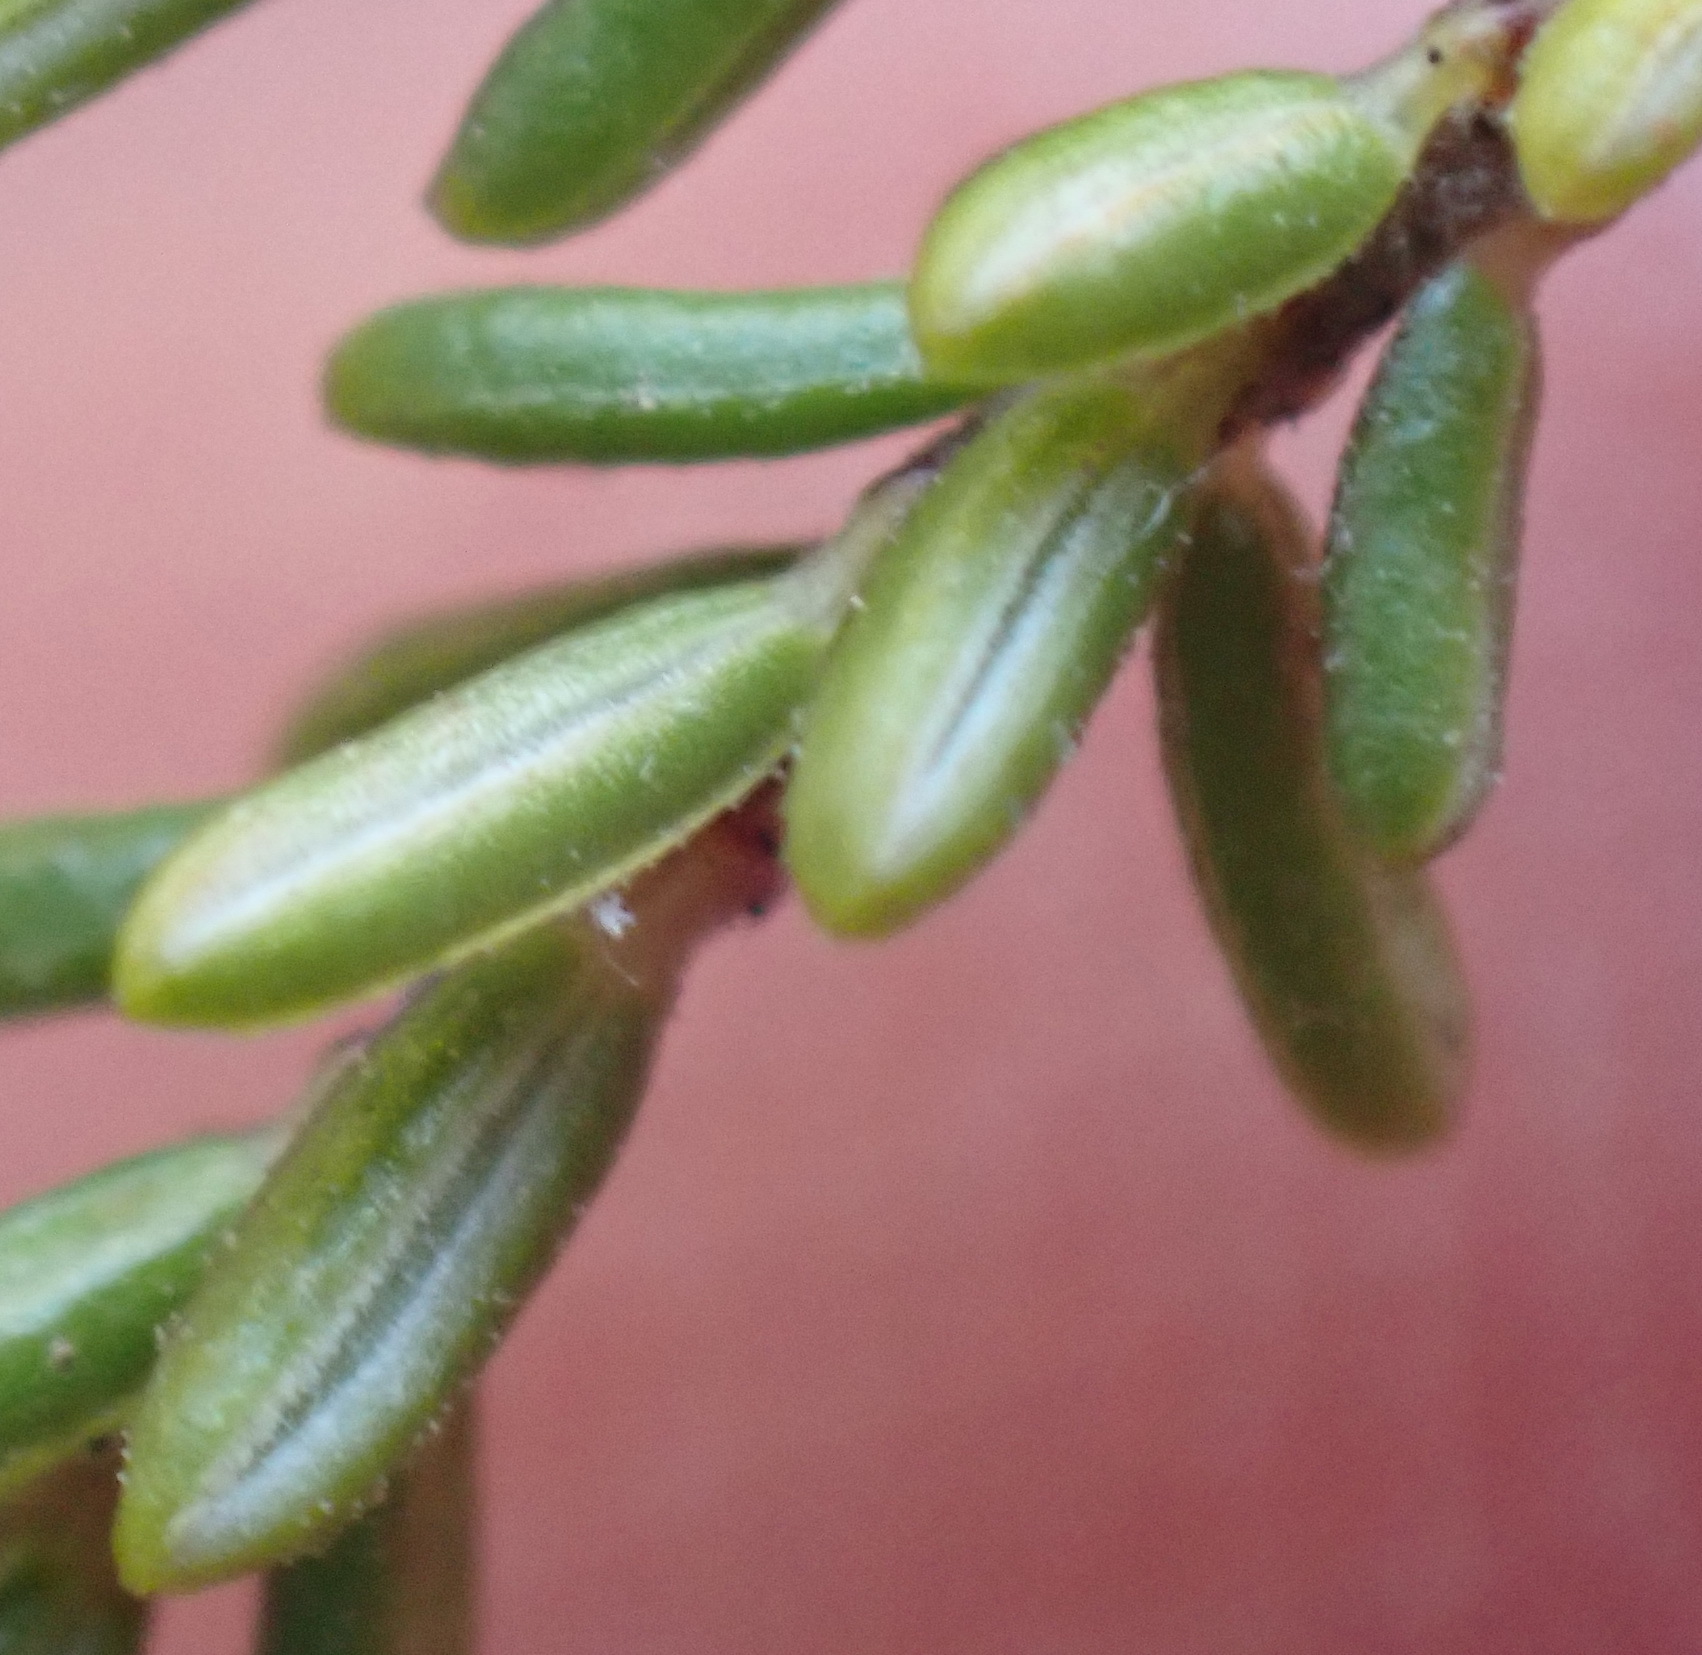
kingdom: Plantae
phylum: Tracheophyta
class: Magnoliopsida
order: Ericales
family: Ericaceae
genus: Erica
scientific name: Erica peltata
